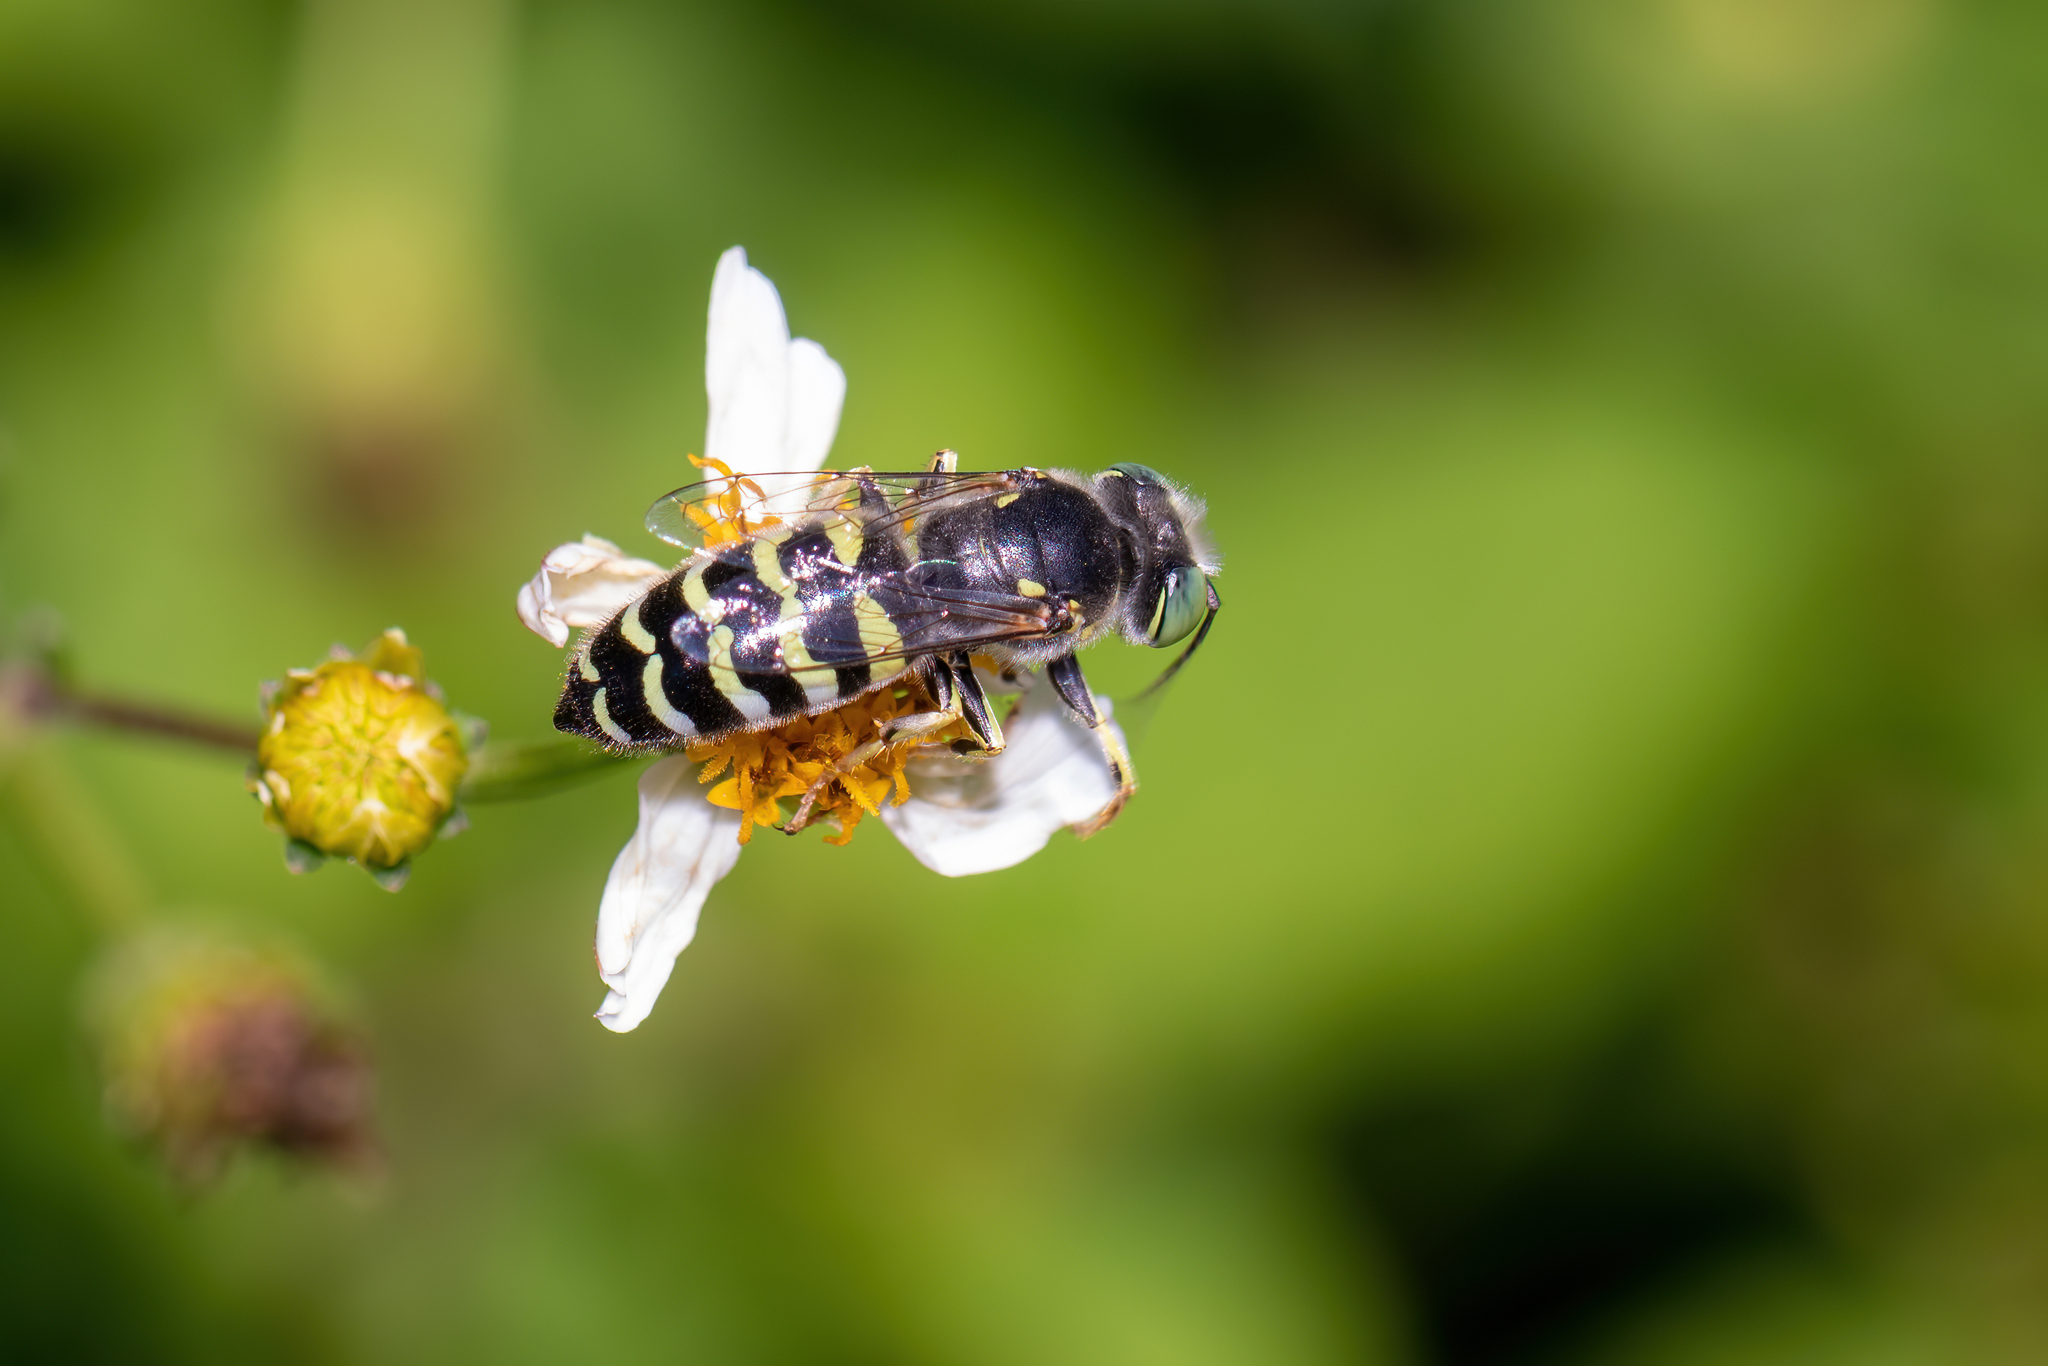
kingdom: Animalia
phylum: Arthropoda
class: Insecta
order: Hymenoptera
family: Crabronidae
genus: Bembix
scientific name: Bembix americana
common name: American sand wasp
